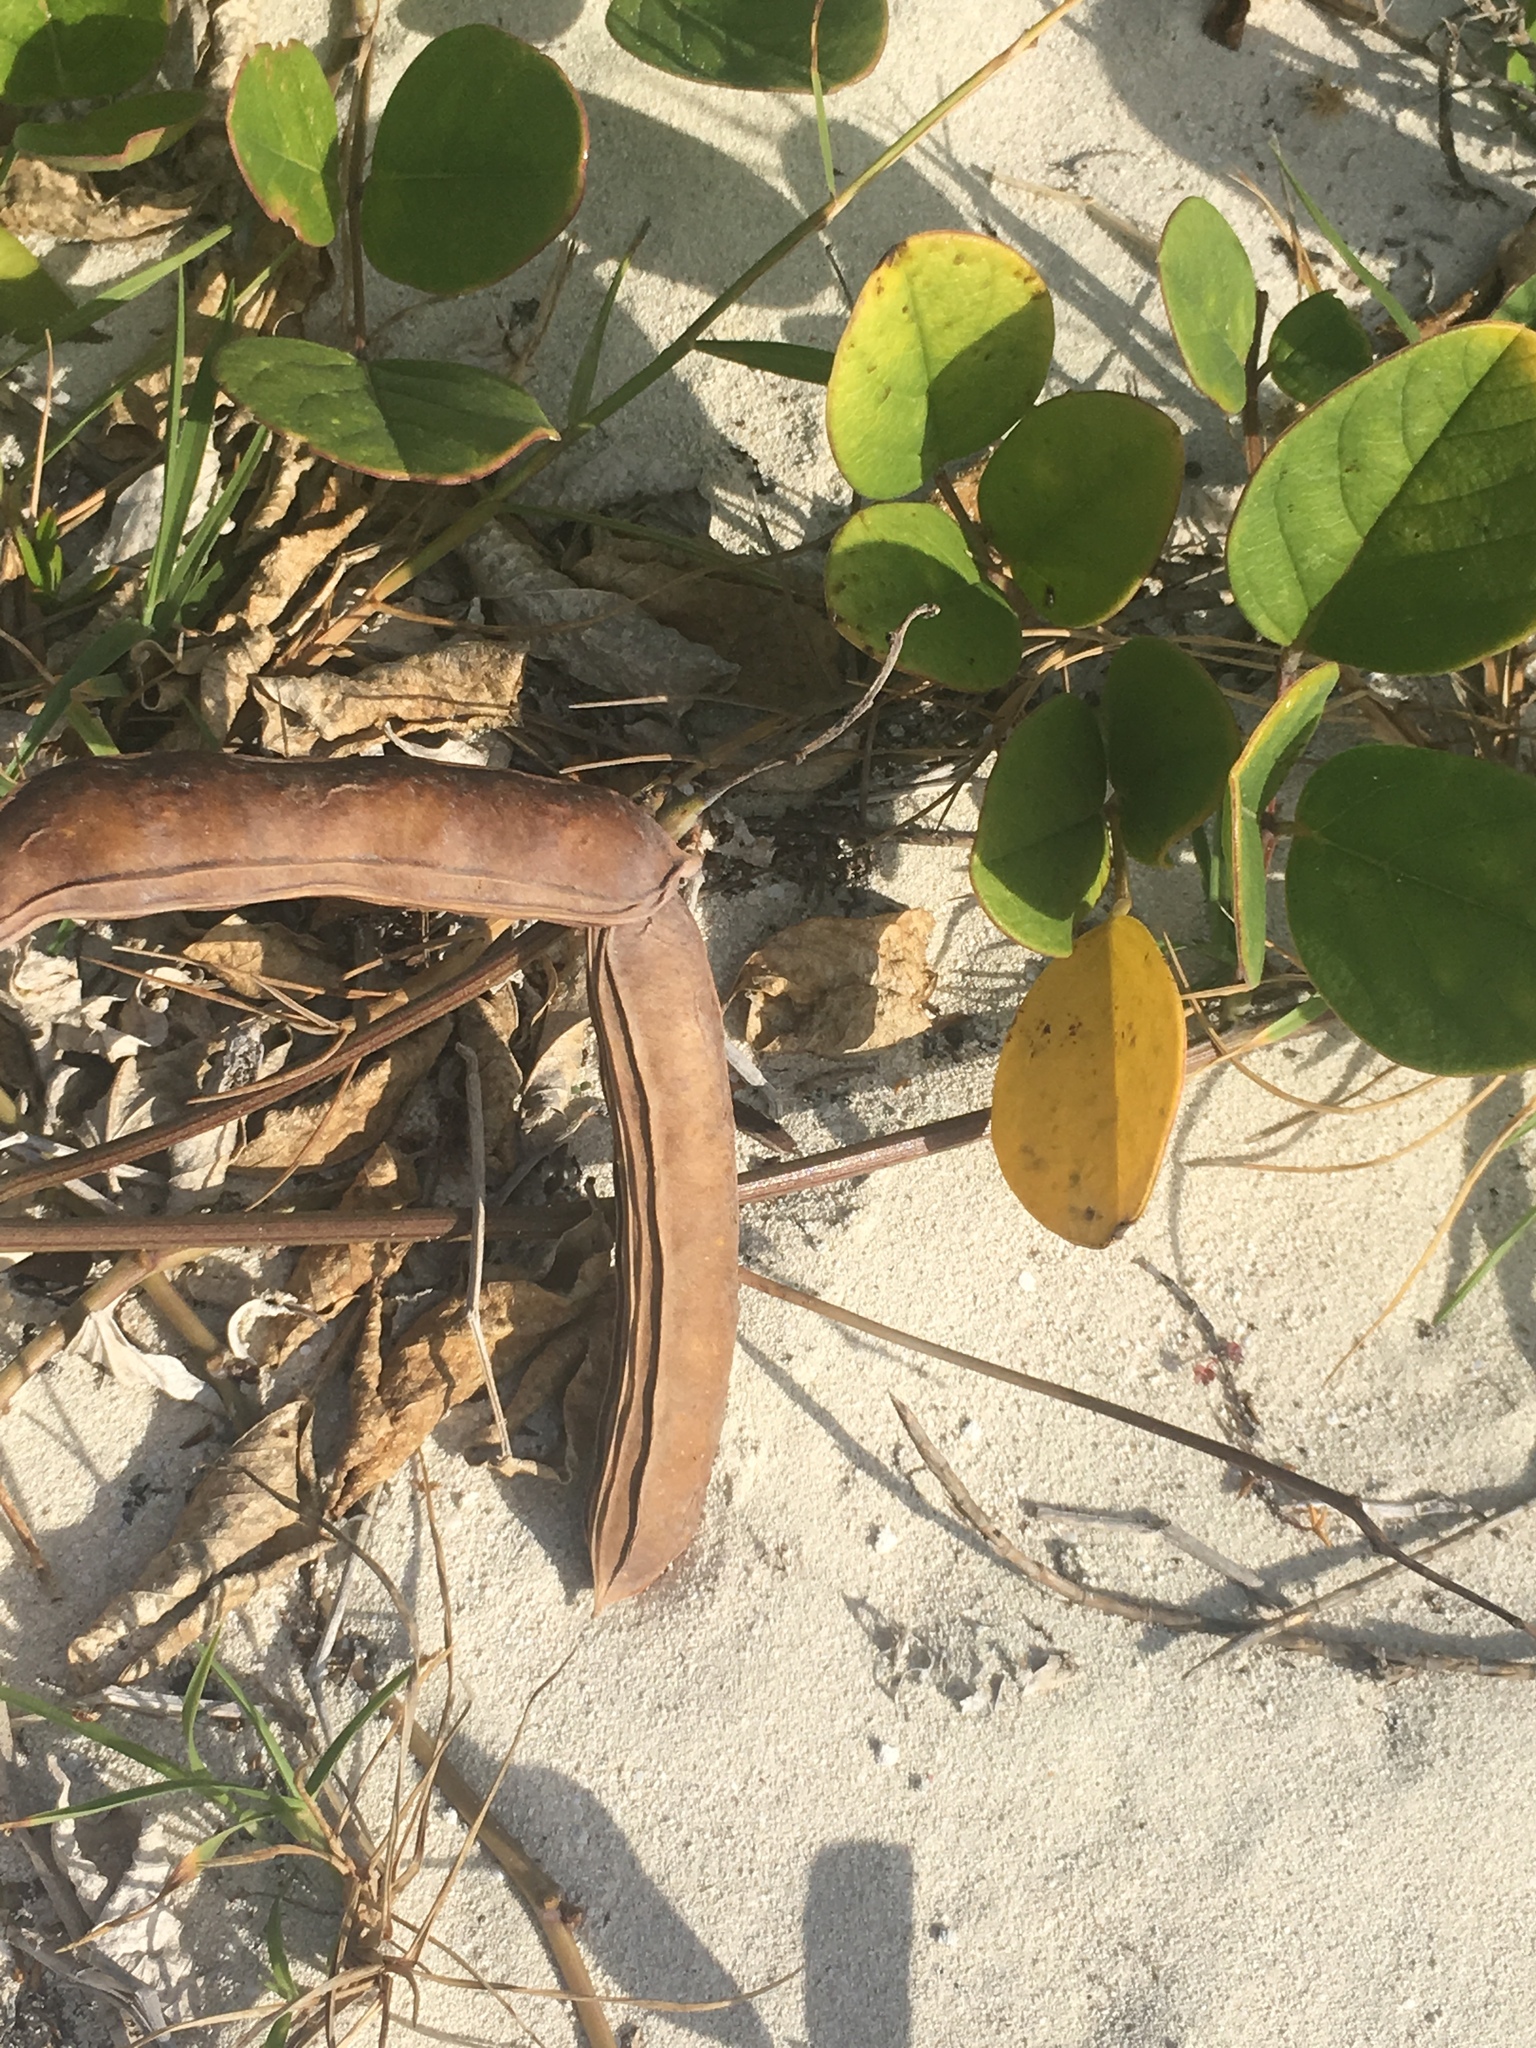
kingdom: Plantae
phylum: Tracheophyta
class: Magnoliopsida
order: Fabales
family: Fabaceae
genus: Canavalia
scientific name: Canavalia rosea
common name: Beach-bean
